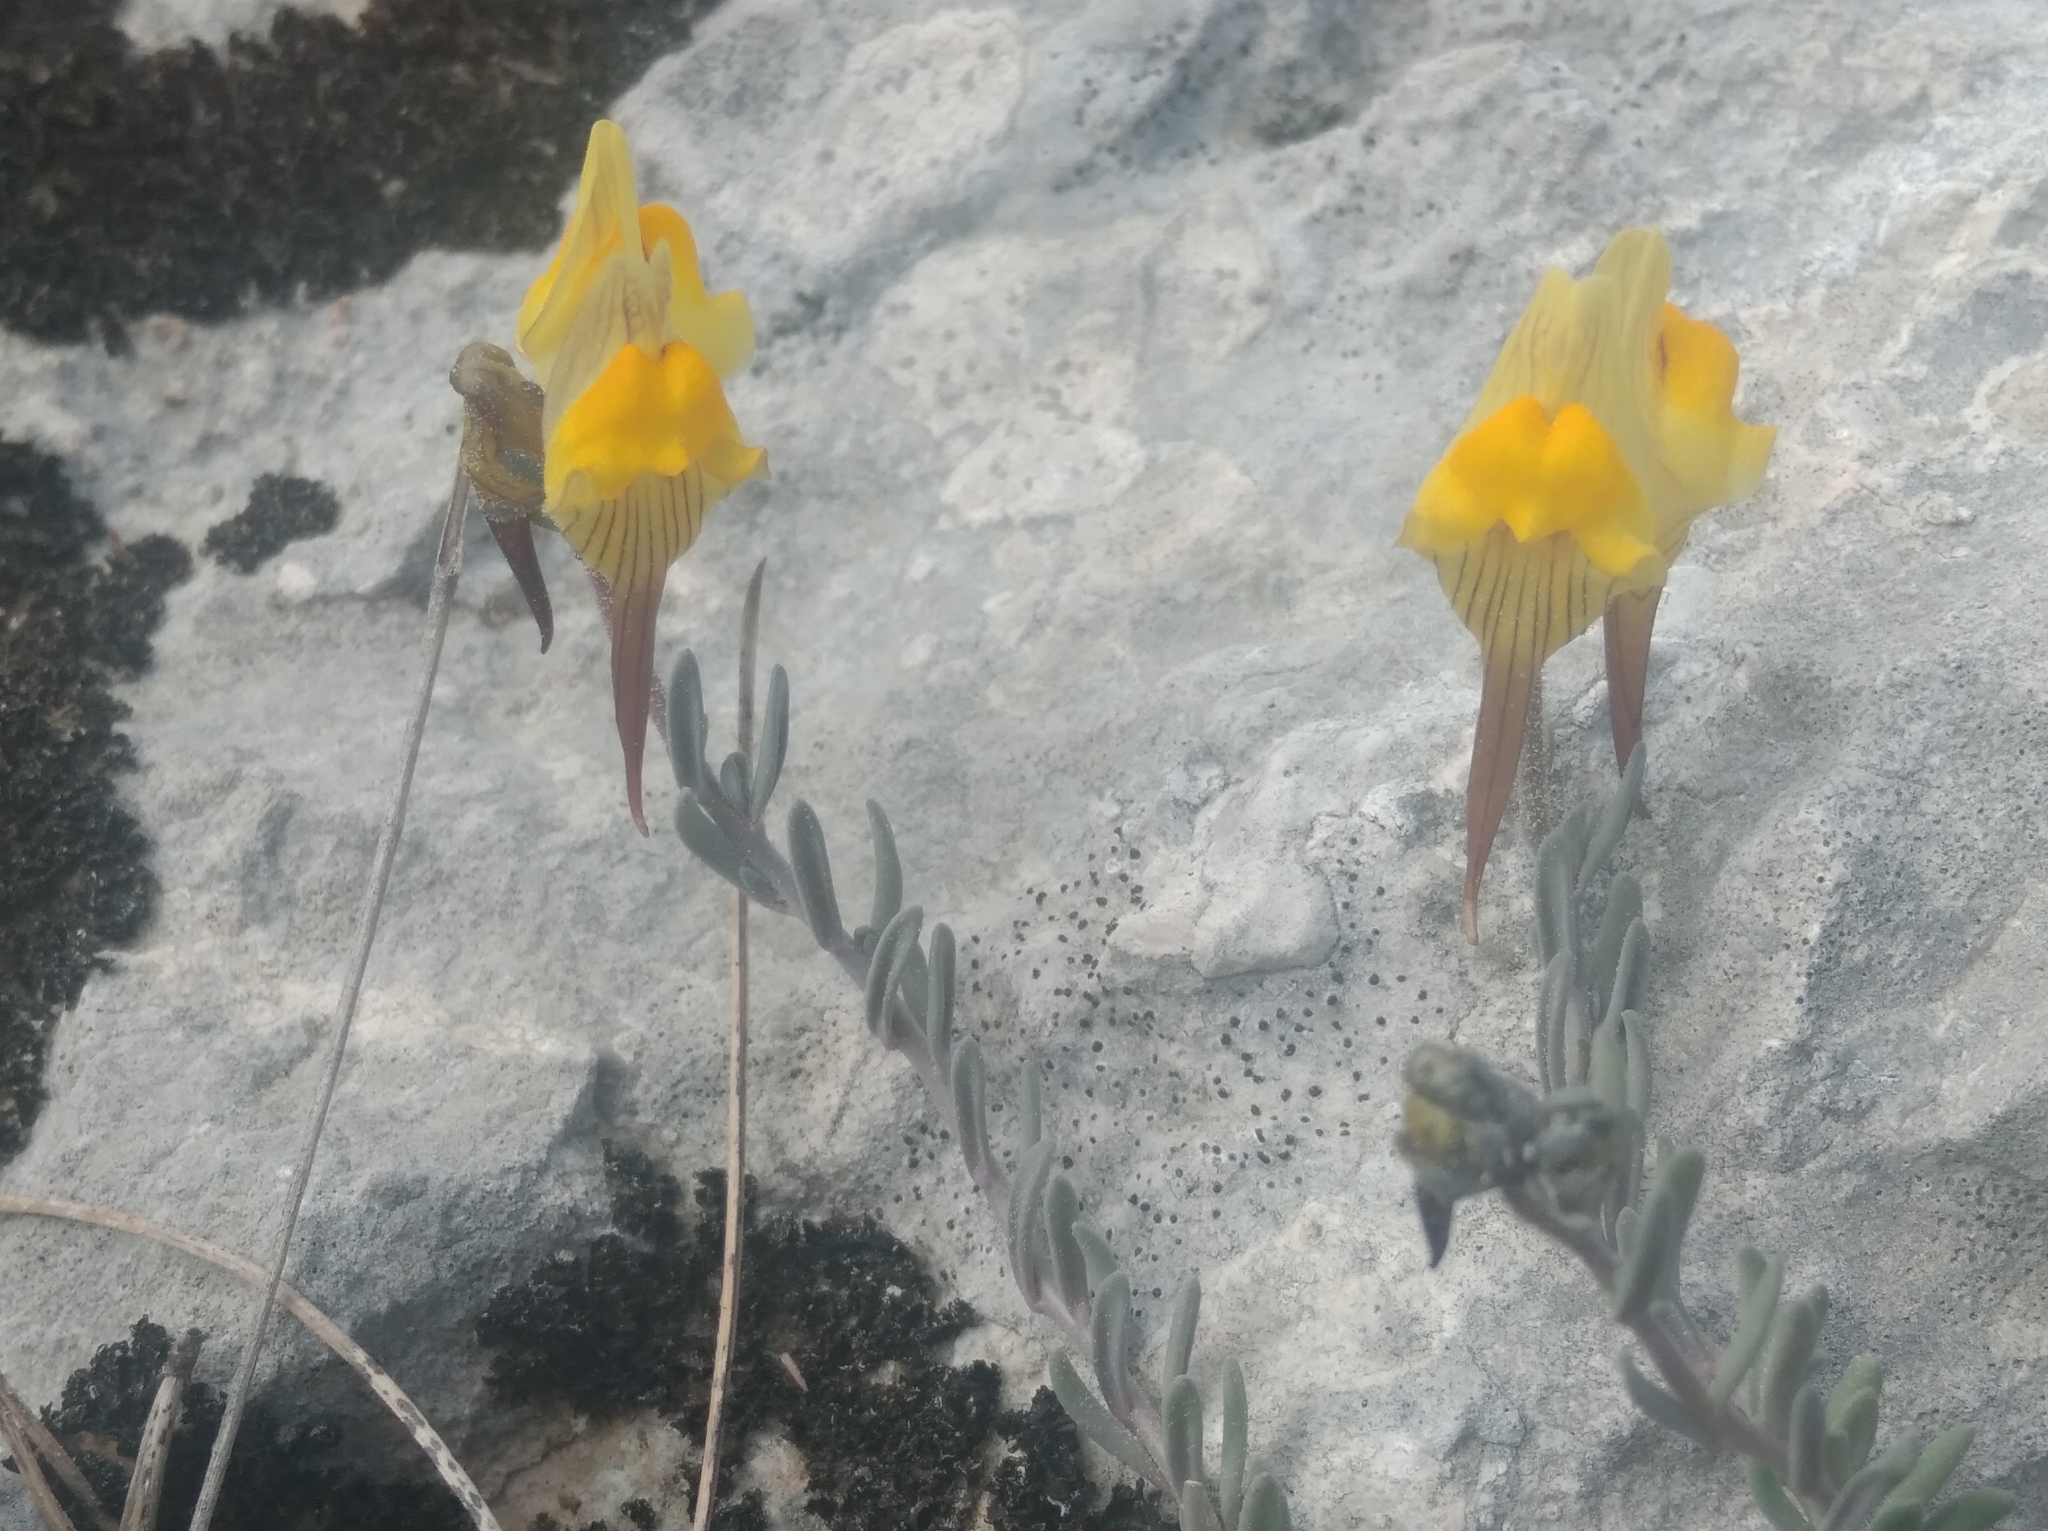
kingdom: Plantae
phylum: Tracheophyta
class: Magnoliopsida
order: Lamiales
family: Plantaginaceae
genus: Linaria
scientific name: Linaria supina
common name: Prostrate toadflax
